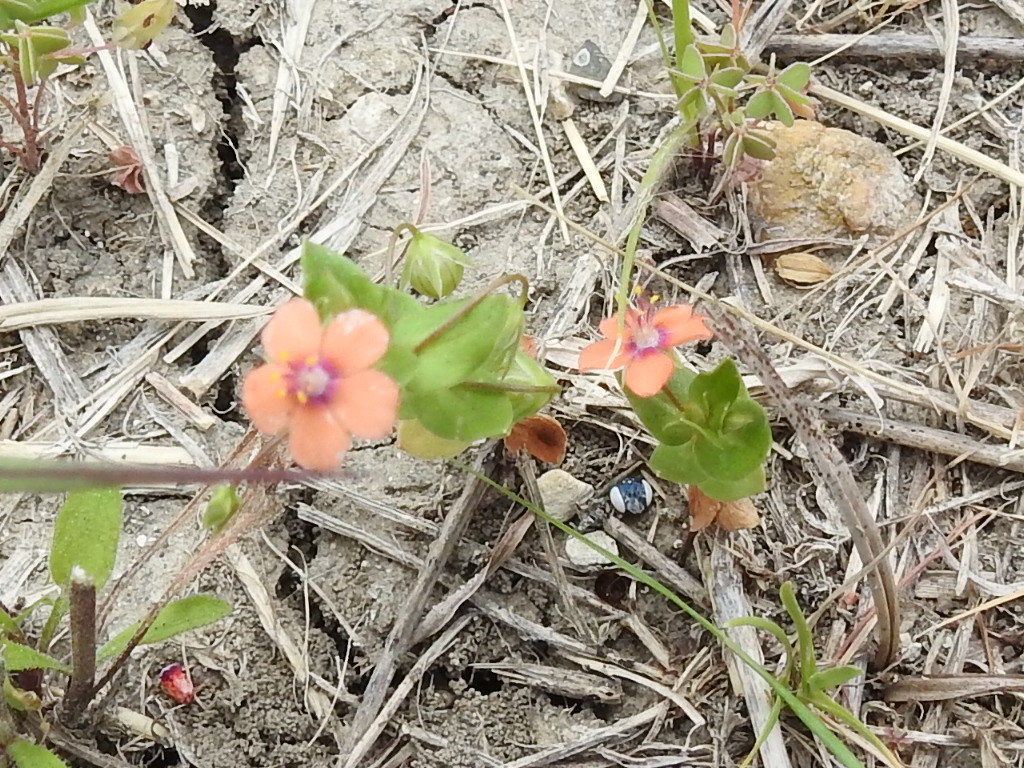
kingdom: Plantae
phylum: Tracheophyta
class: Magnoliopsida
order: Ericales
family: Primulaceae
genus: Lysimachia
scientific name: Lysimachia arvensis
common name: Scarlet pimpernel
